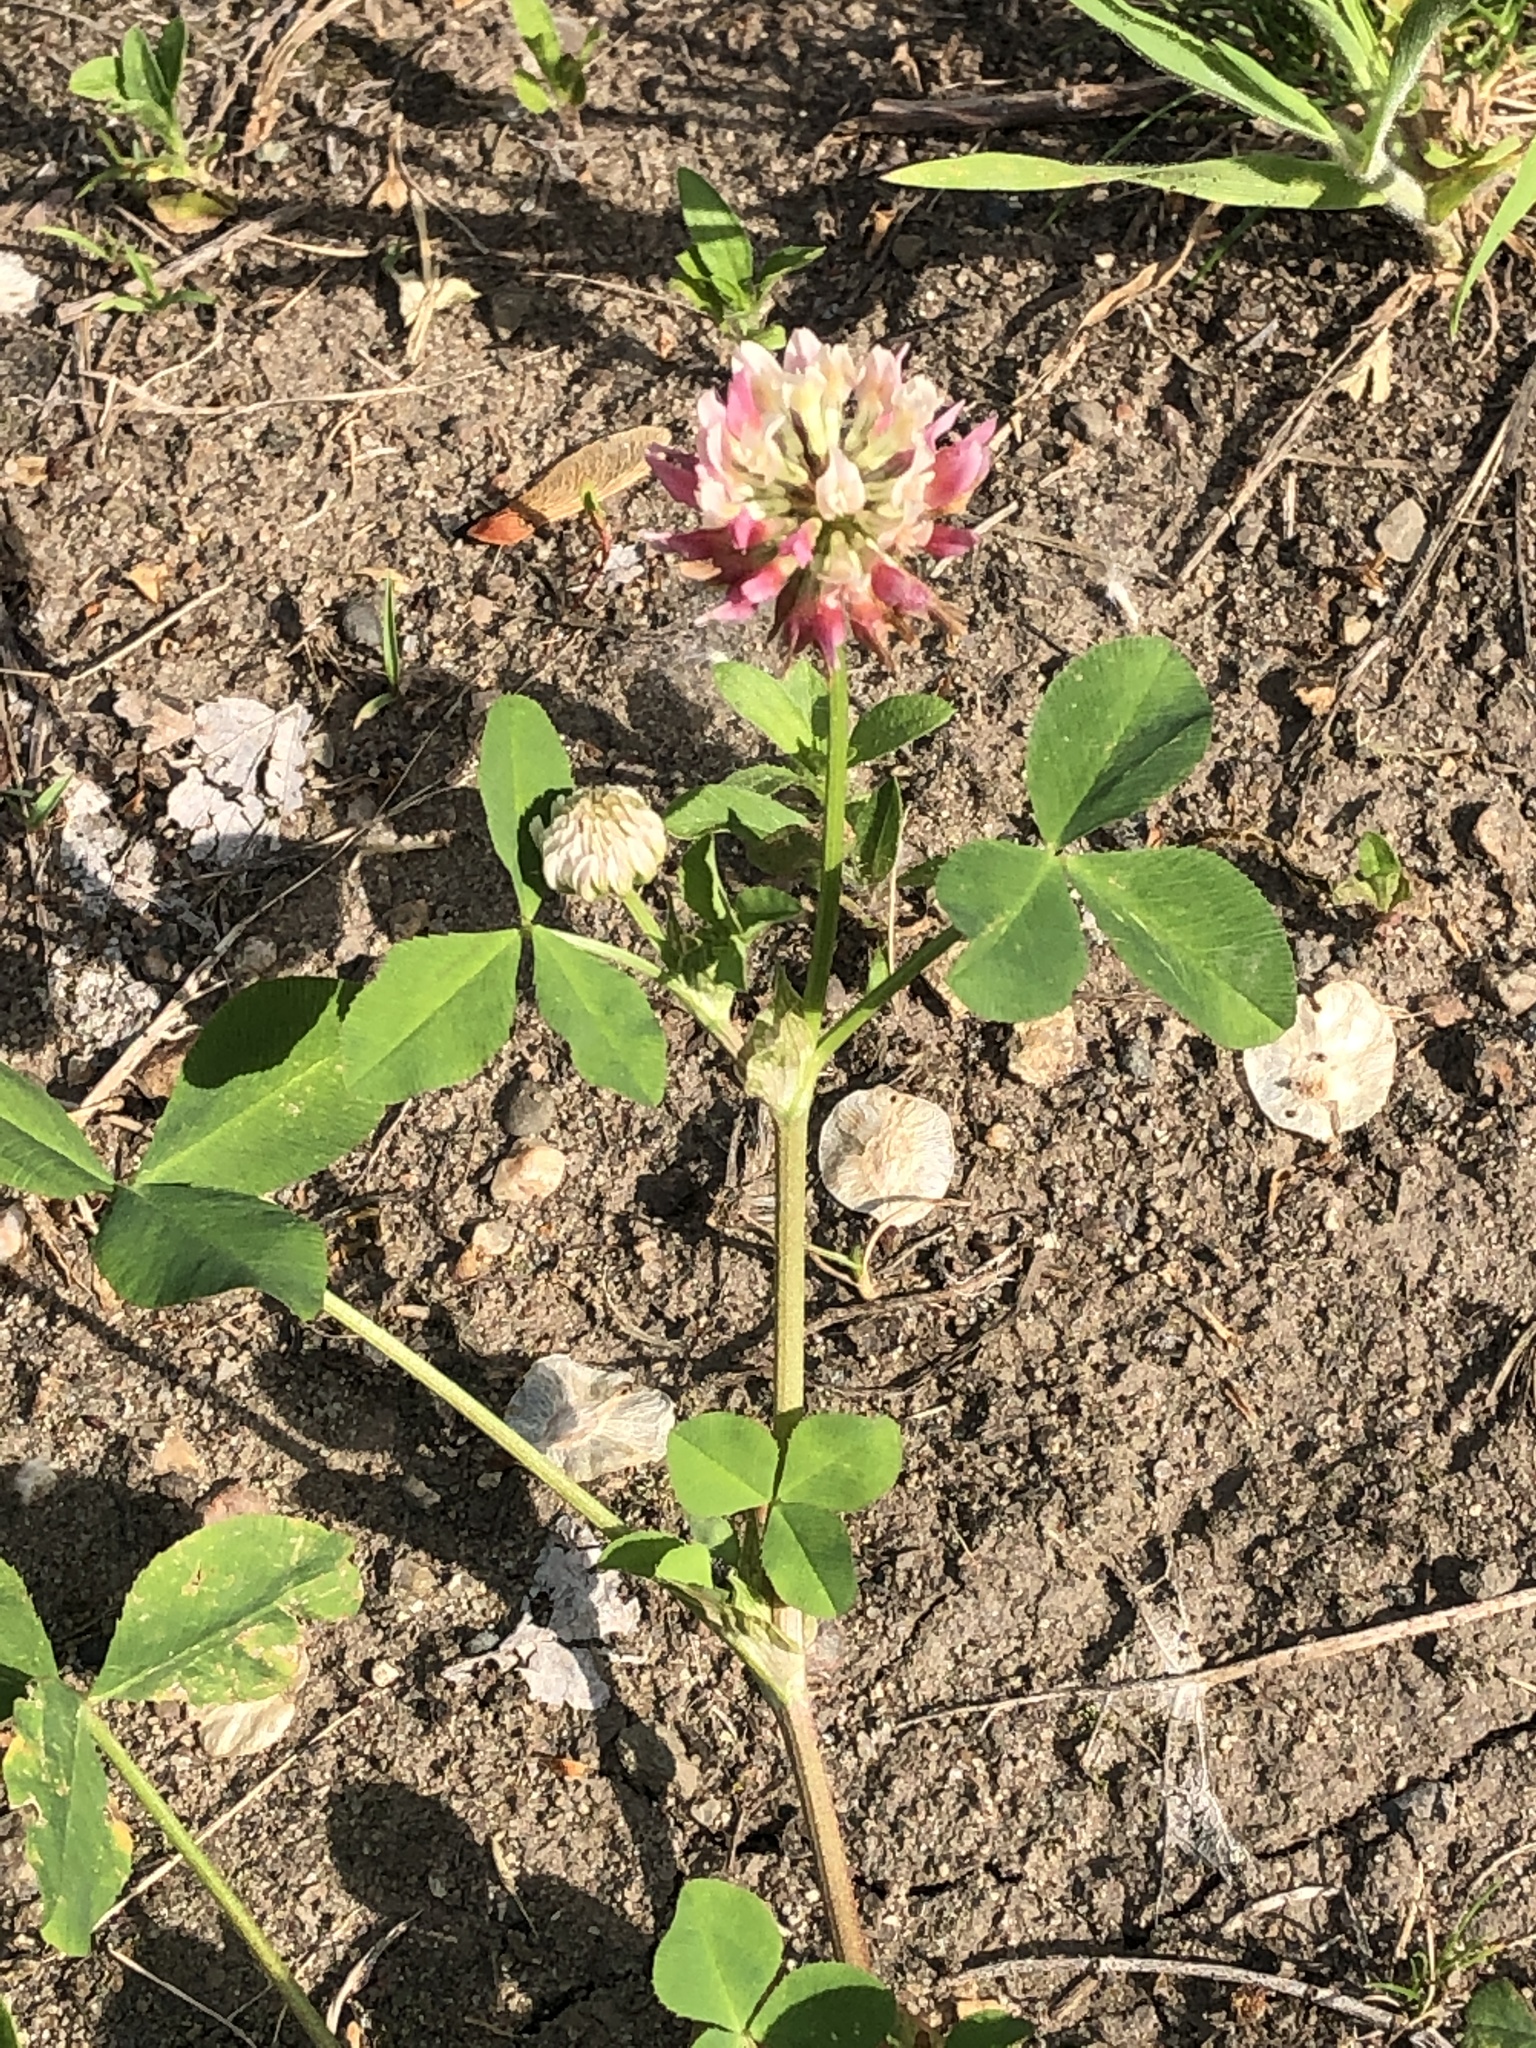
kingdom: Plantae
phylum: Tracheophyta
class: Magnoliopsida
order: Fabales
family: Fabaceae
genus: Trifolium
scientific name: Trifolium hybridum
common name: Alsike clover
